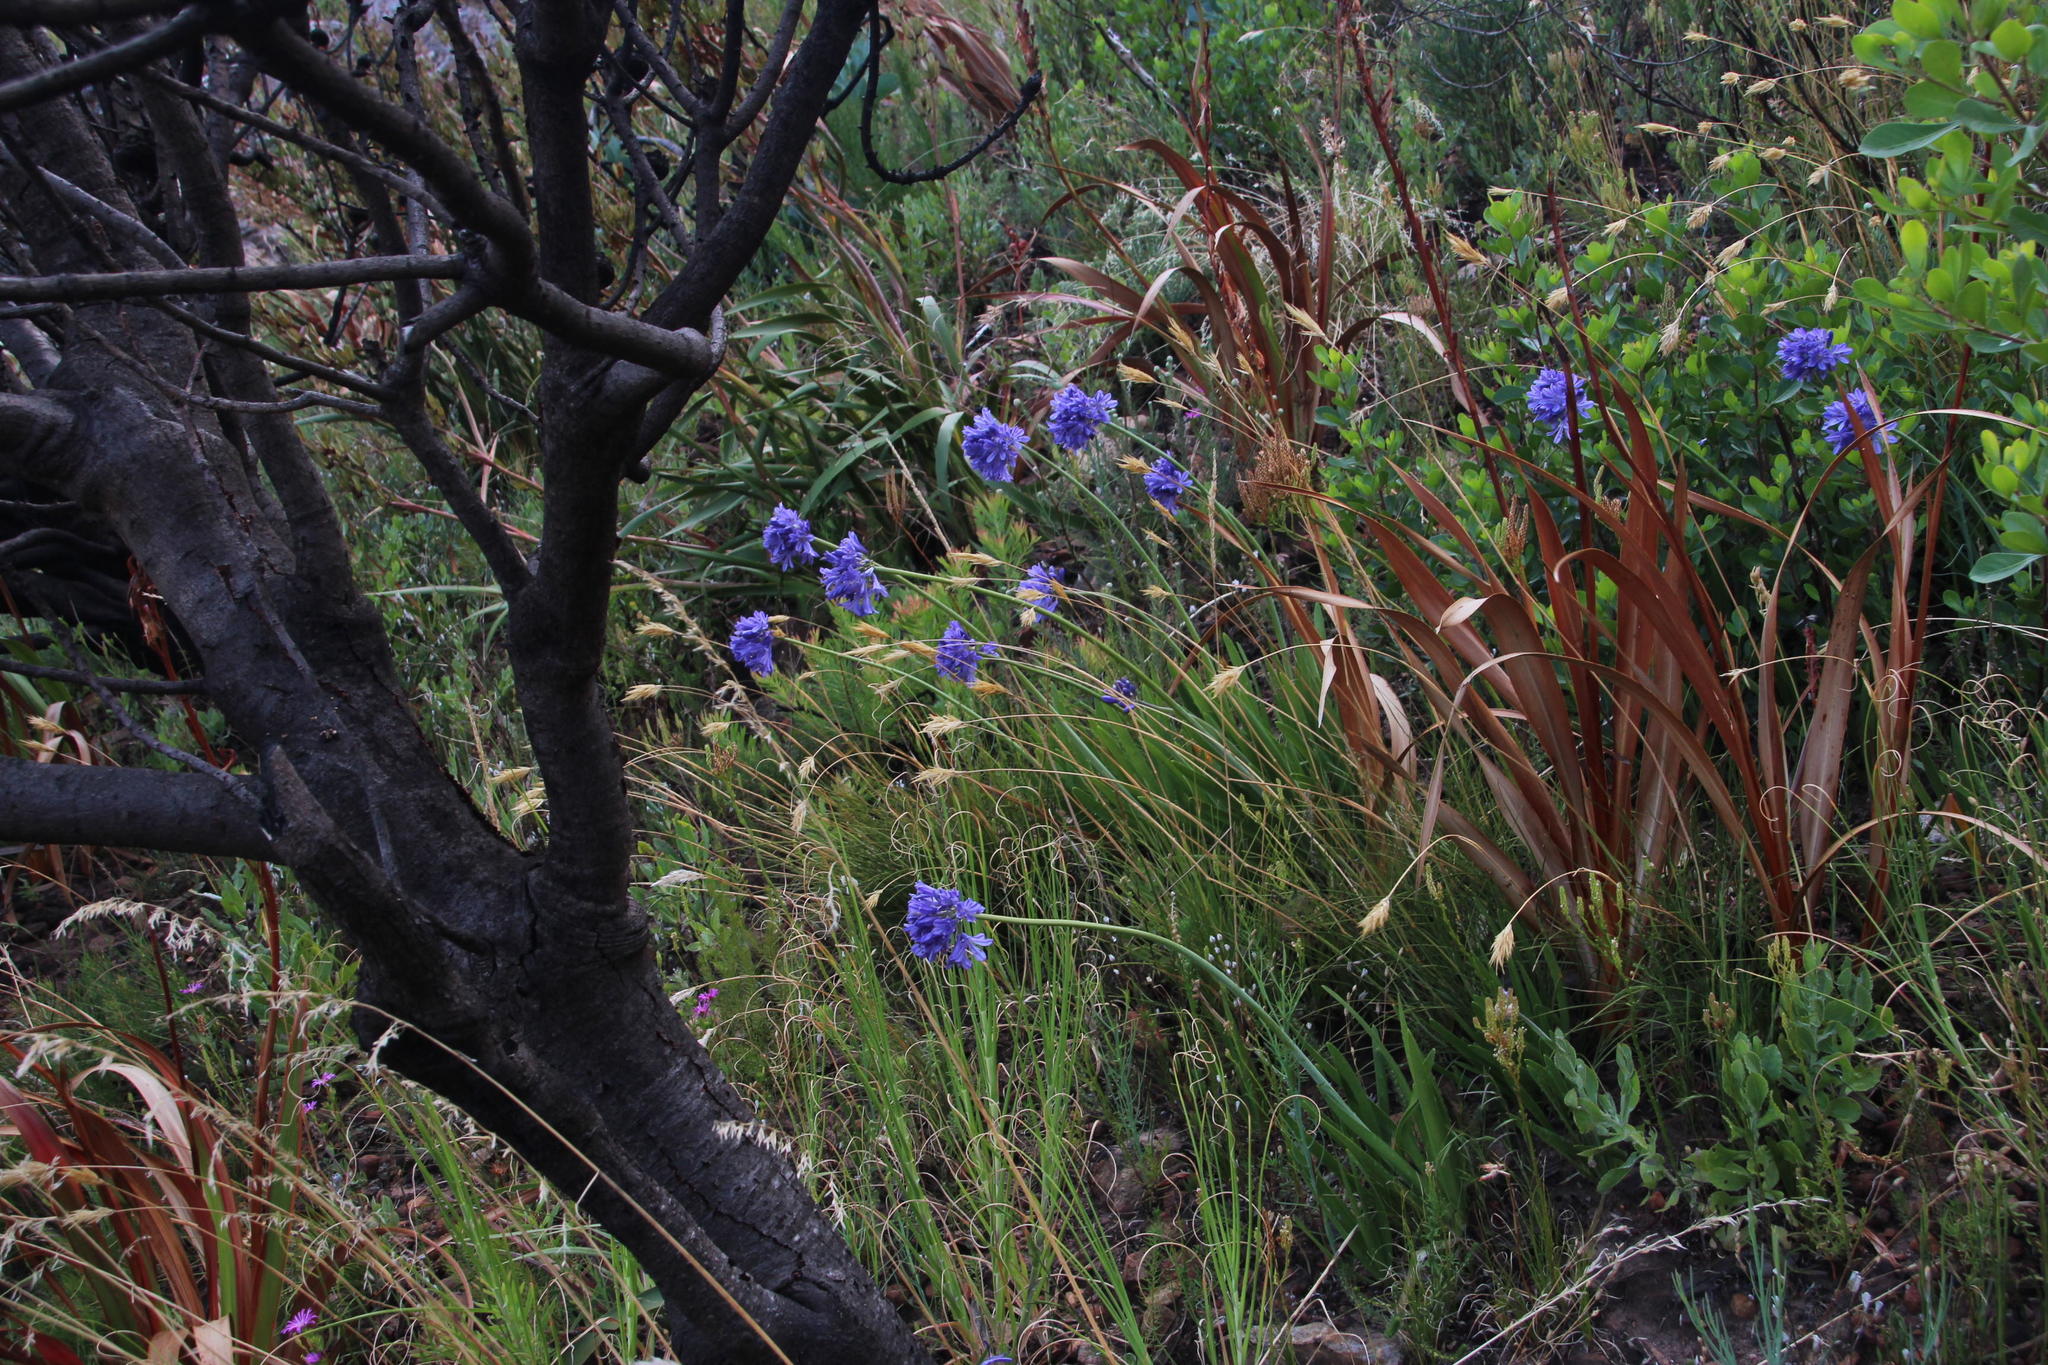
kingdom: Plantae
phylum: Tracheophyta
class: Liliopsida
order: Asparagales
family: Amaryllidaceae
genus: Agapanthus
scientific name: Agapanthus africanus
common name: Lily-of-the-nile
